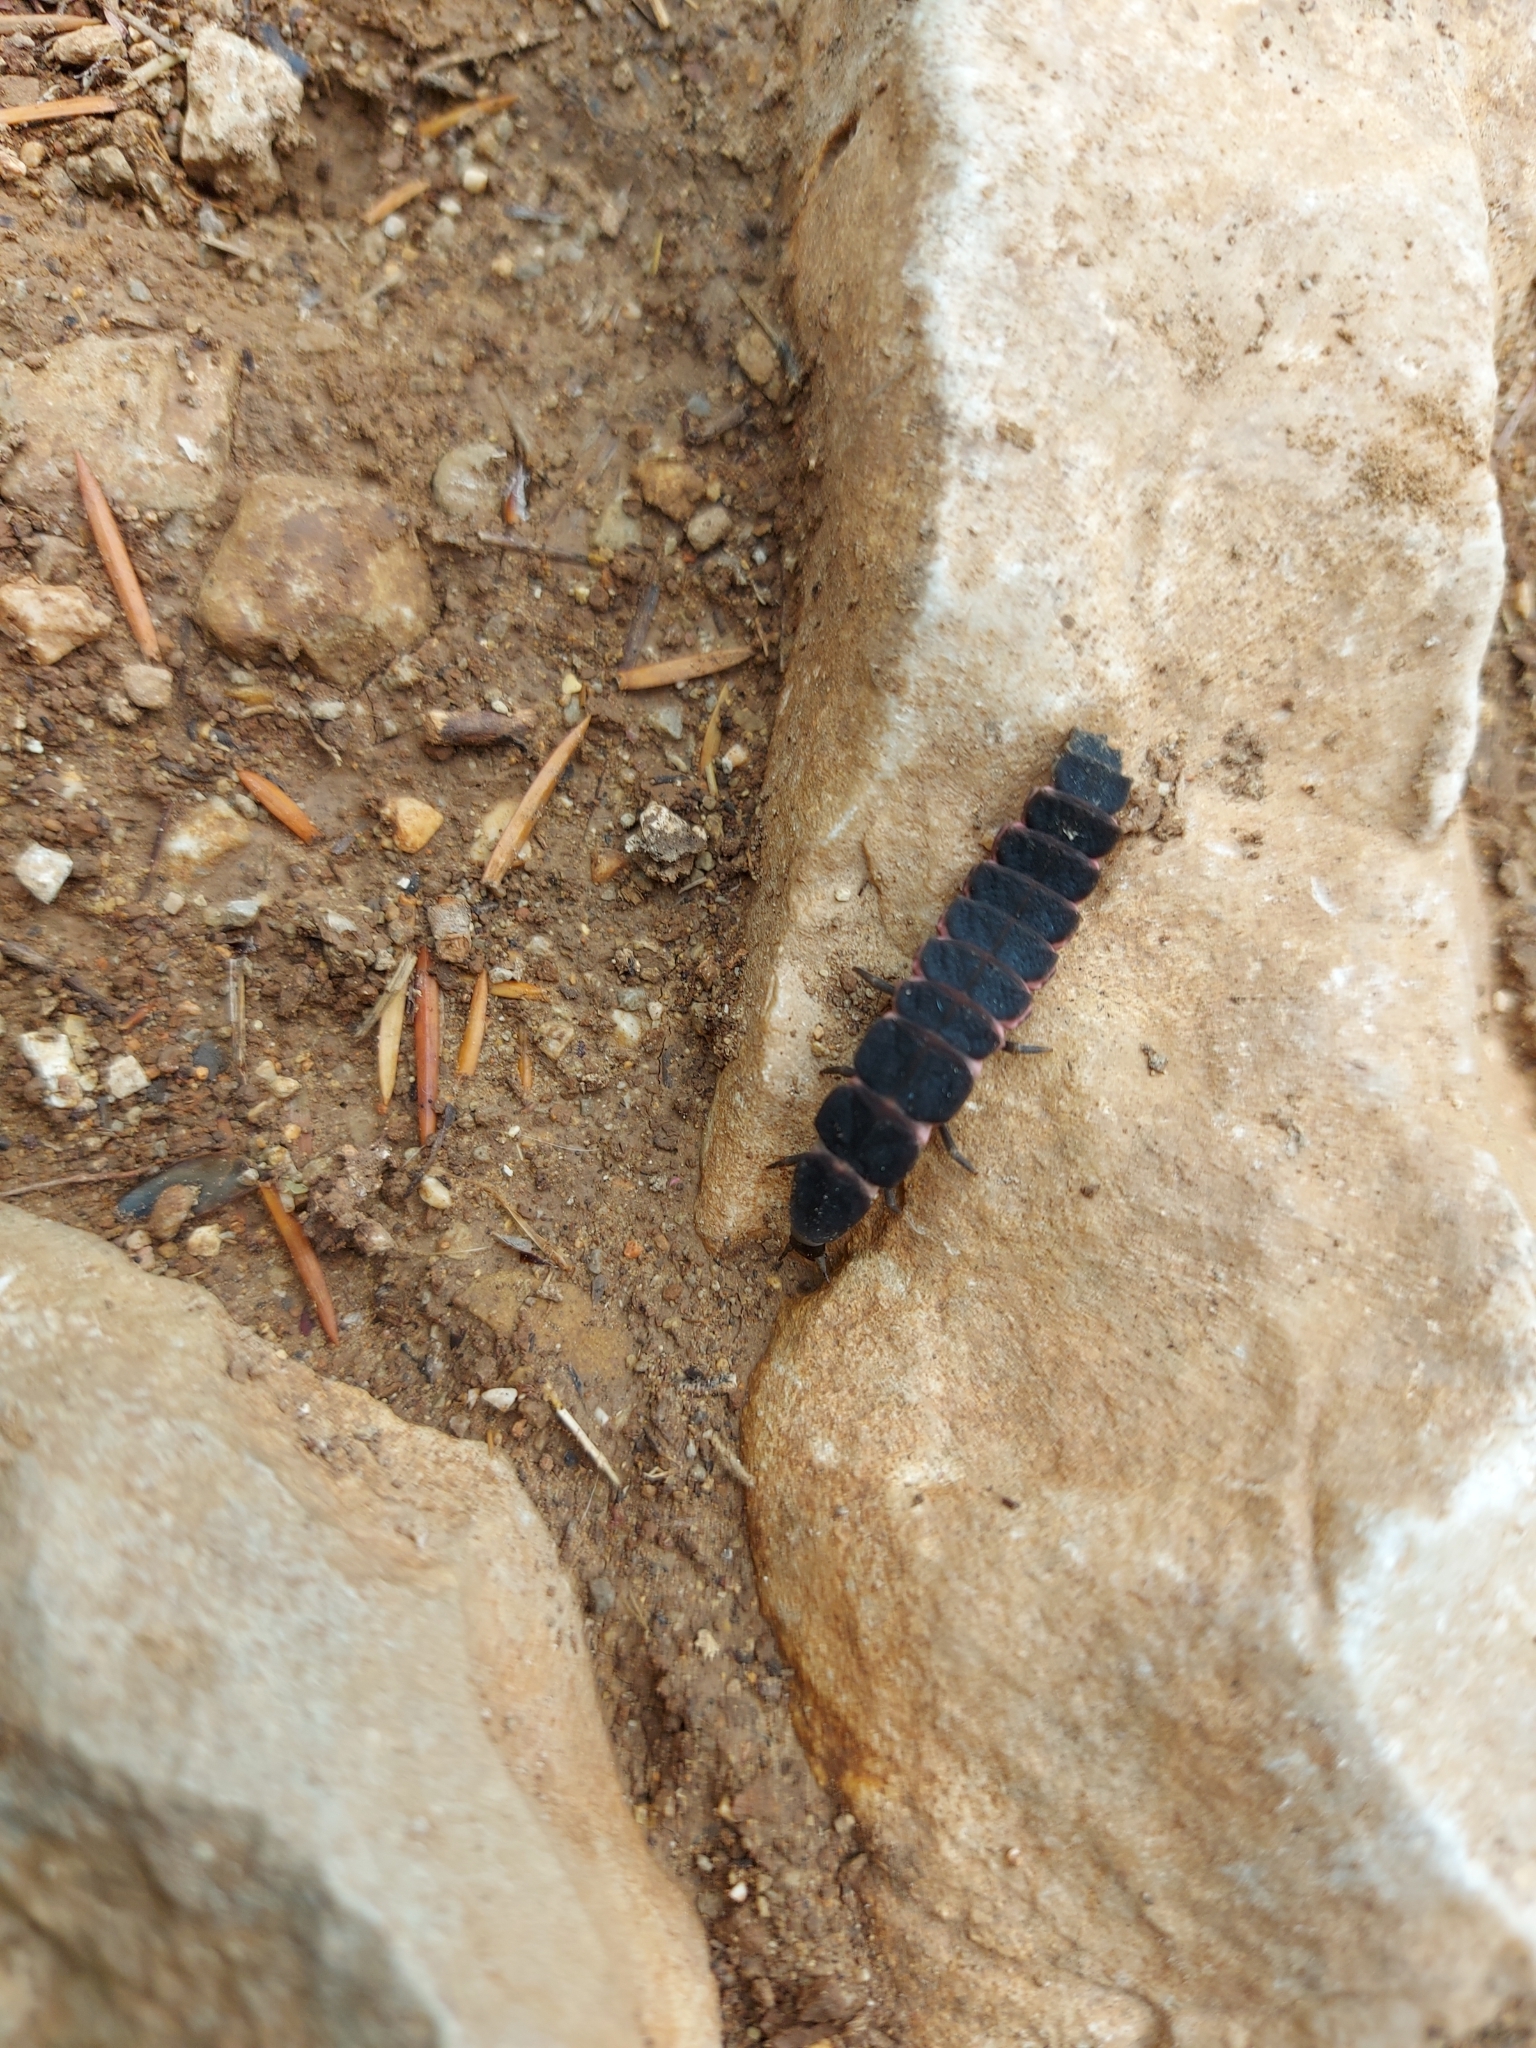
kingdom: Animalia
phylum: Arthropoda
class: Insecta
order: Coleoptera
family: Lampyridae
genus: Nyctophila
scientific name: Nyctophila reichii
